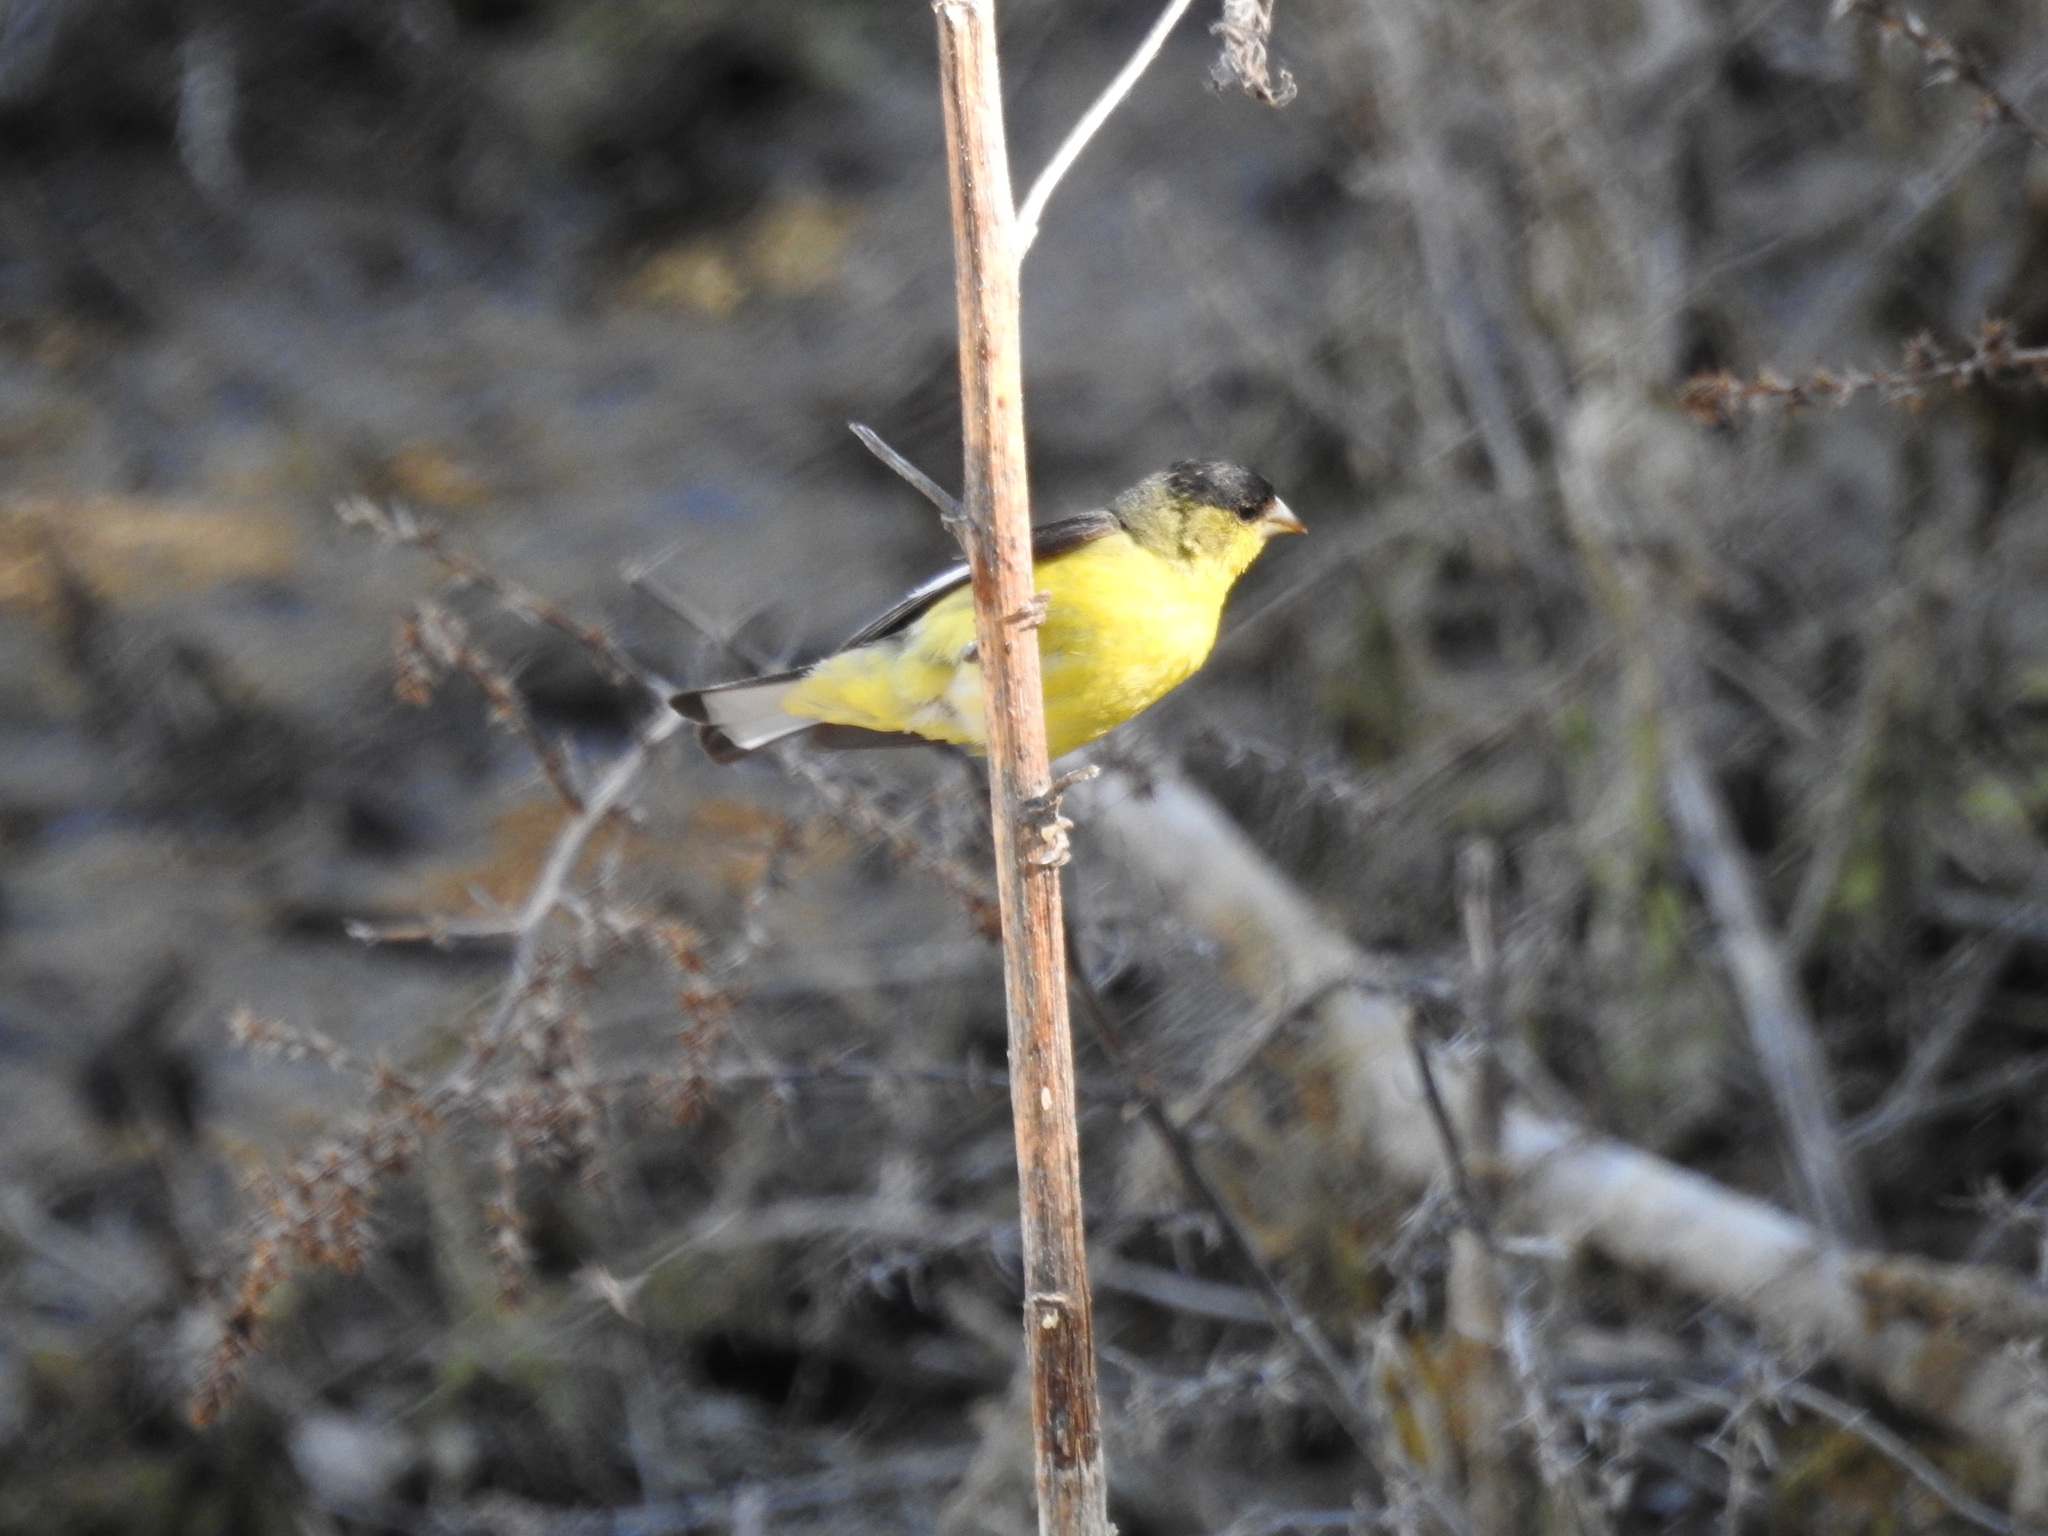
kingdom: Animalia
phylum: Chordata
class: Aves
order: Passeriformes
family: Fringillidae
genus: Spinus
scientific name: Spinus psaltria
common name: Lesser goldfinch
